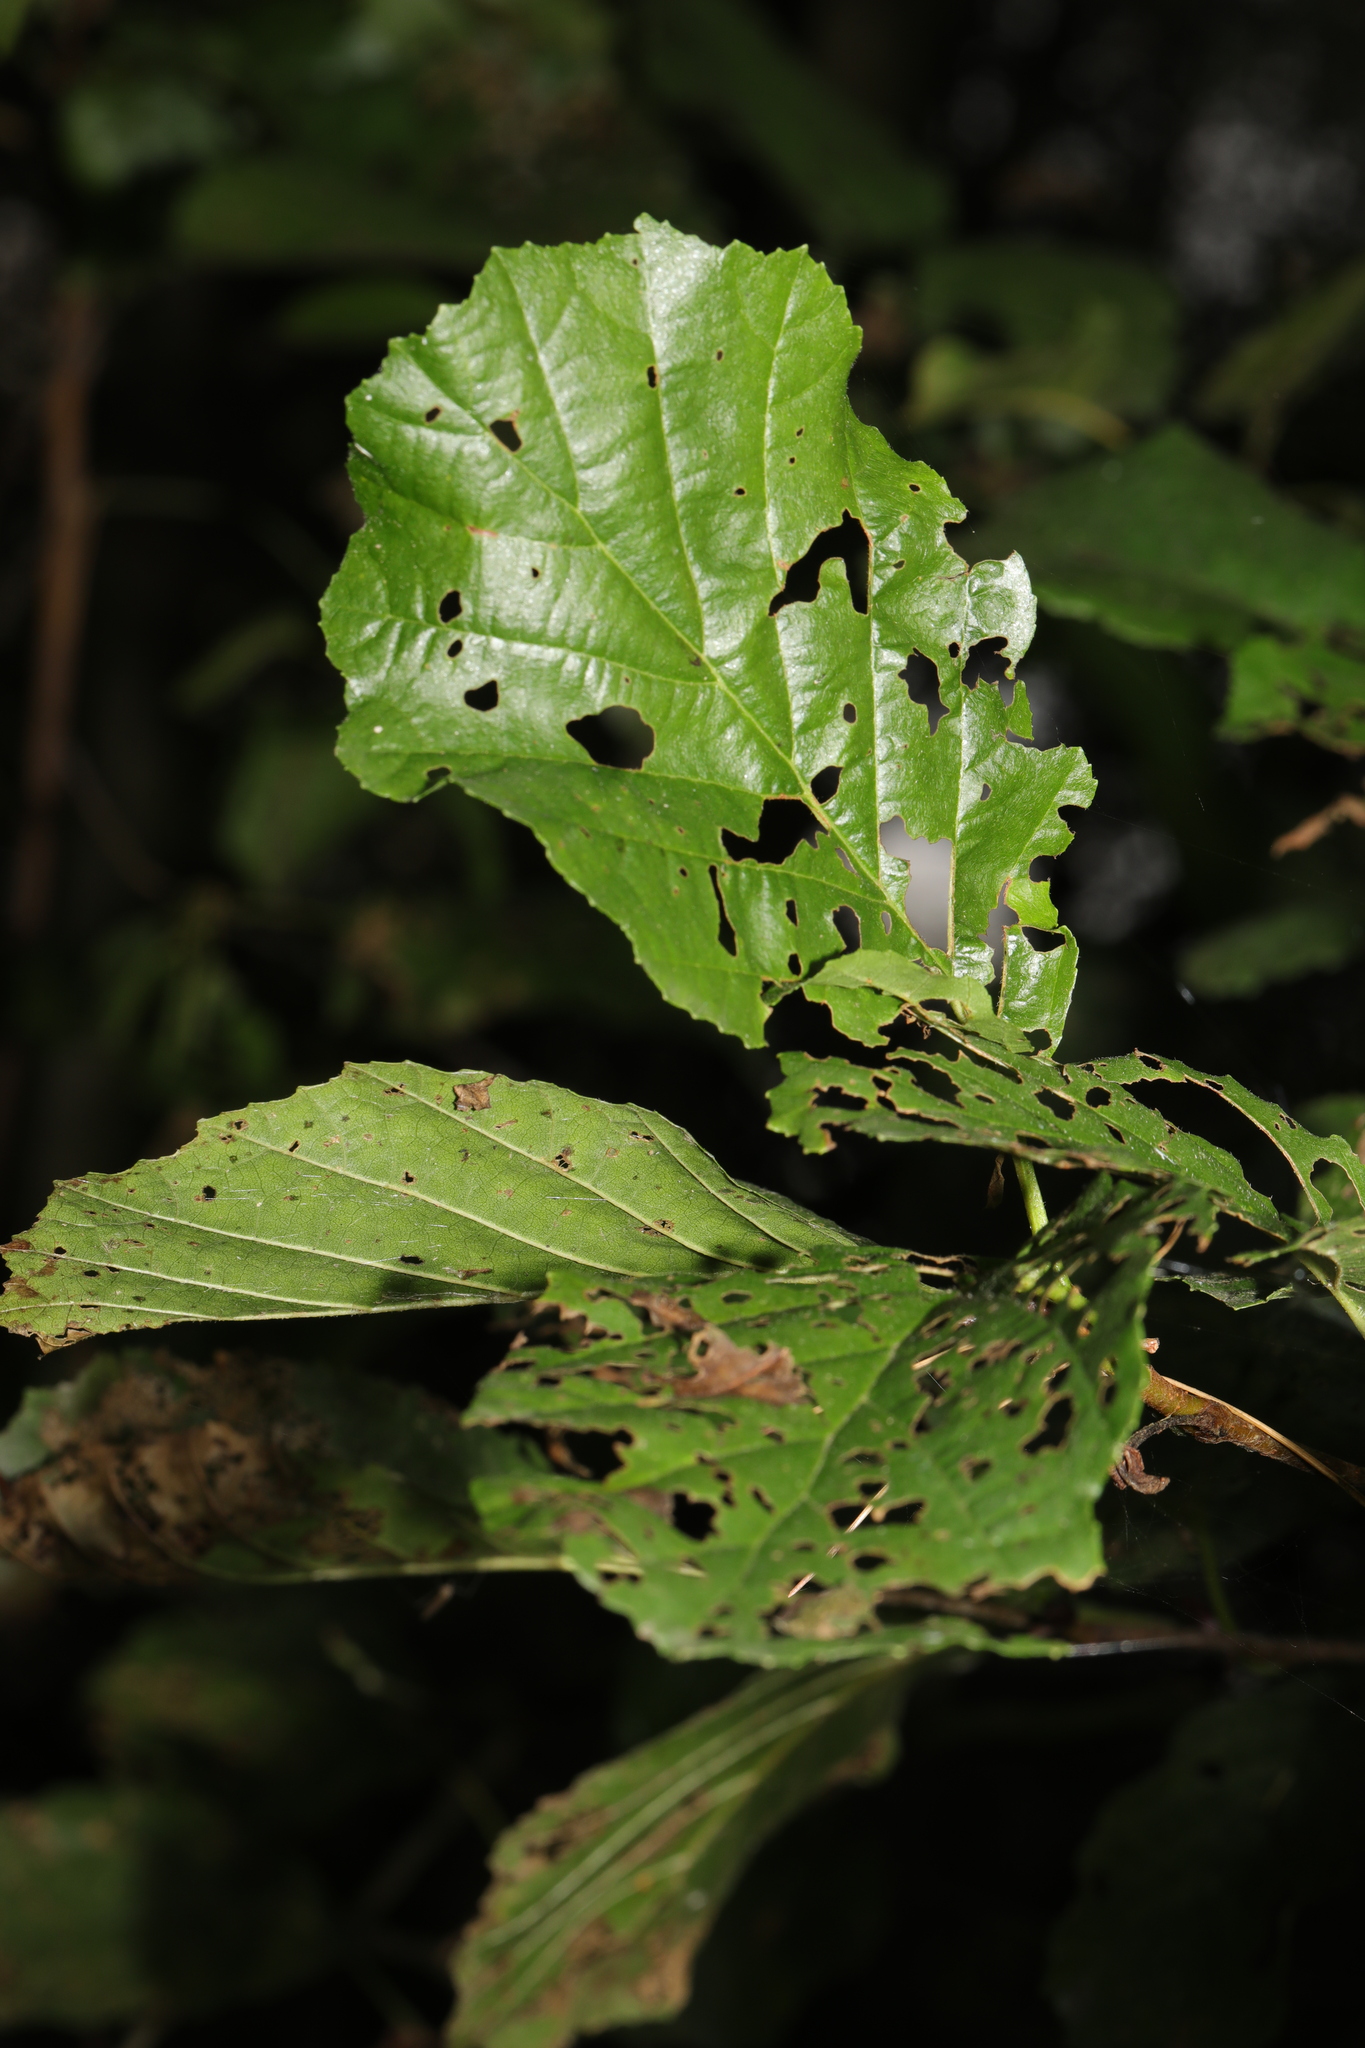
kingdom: Plantae
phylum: Tracheophyta
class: Magnoliopsida
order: Fagales
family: Betulaceae
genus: Alnus
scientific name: Alnus glutinosa
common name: Black alder
